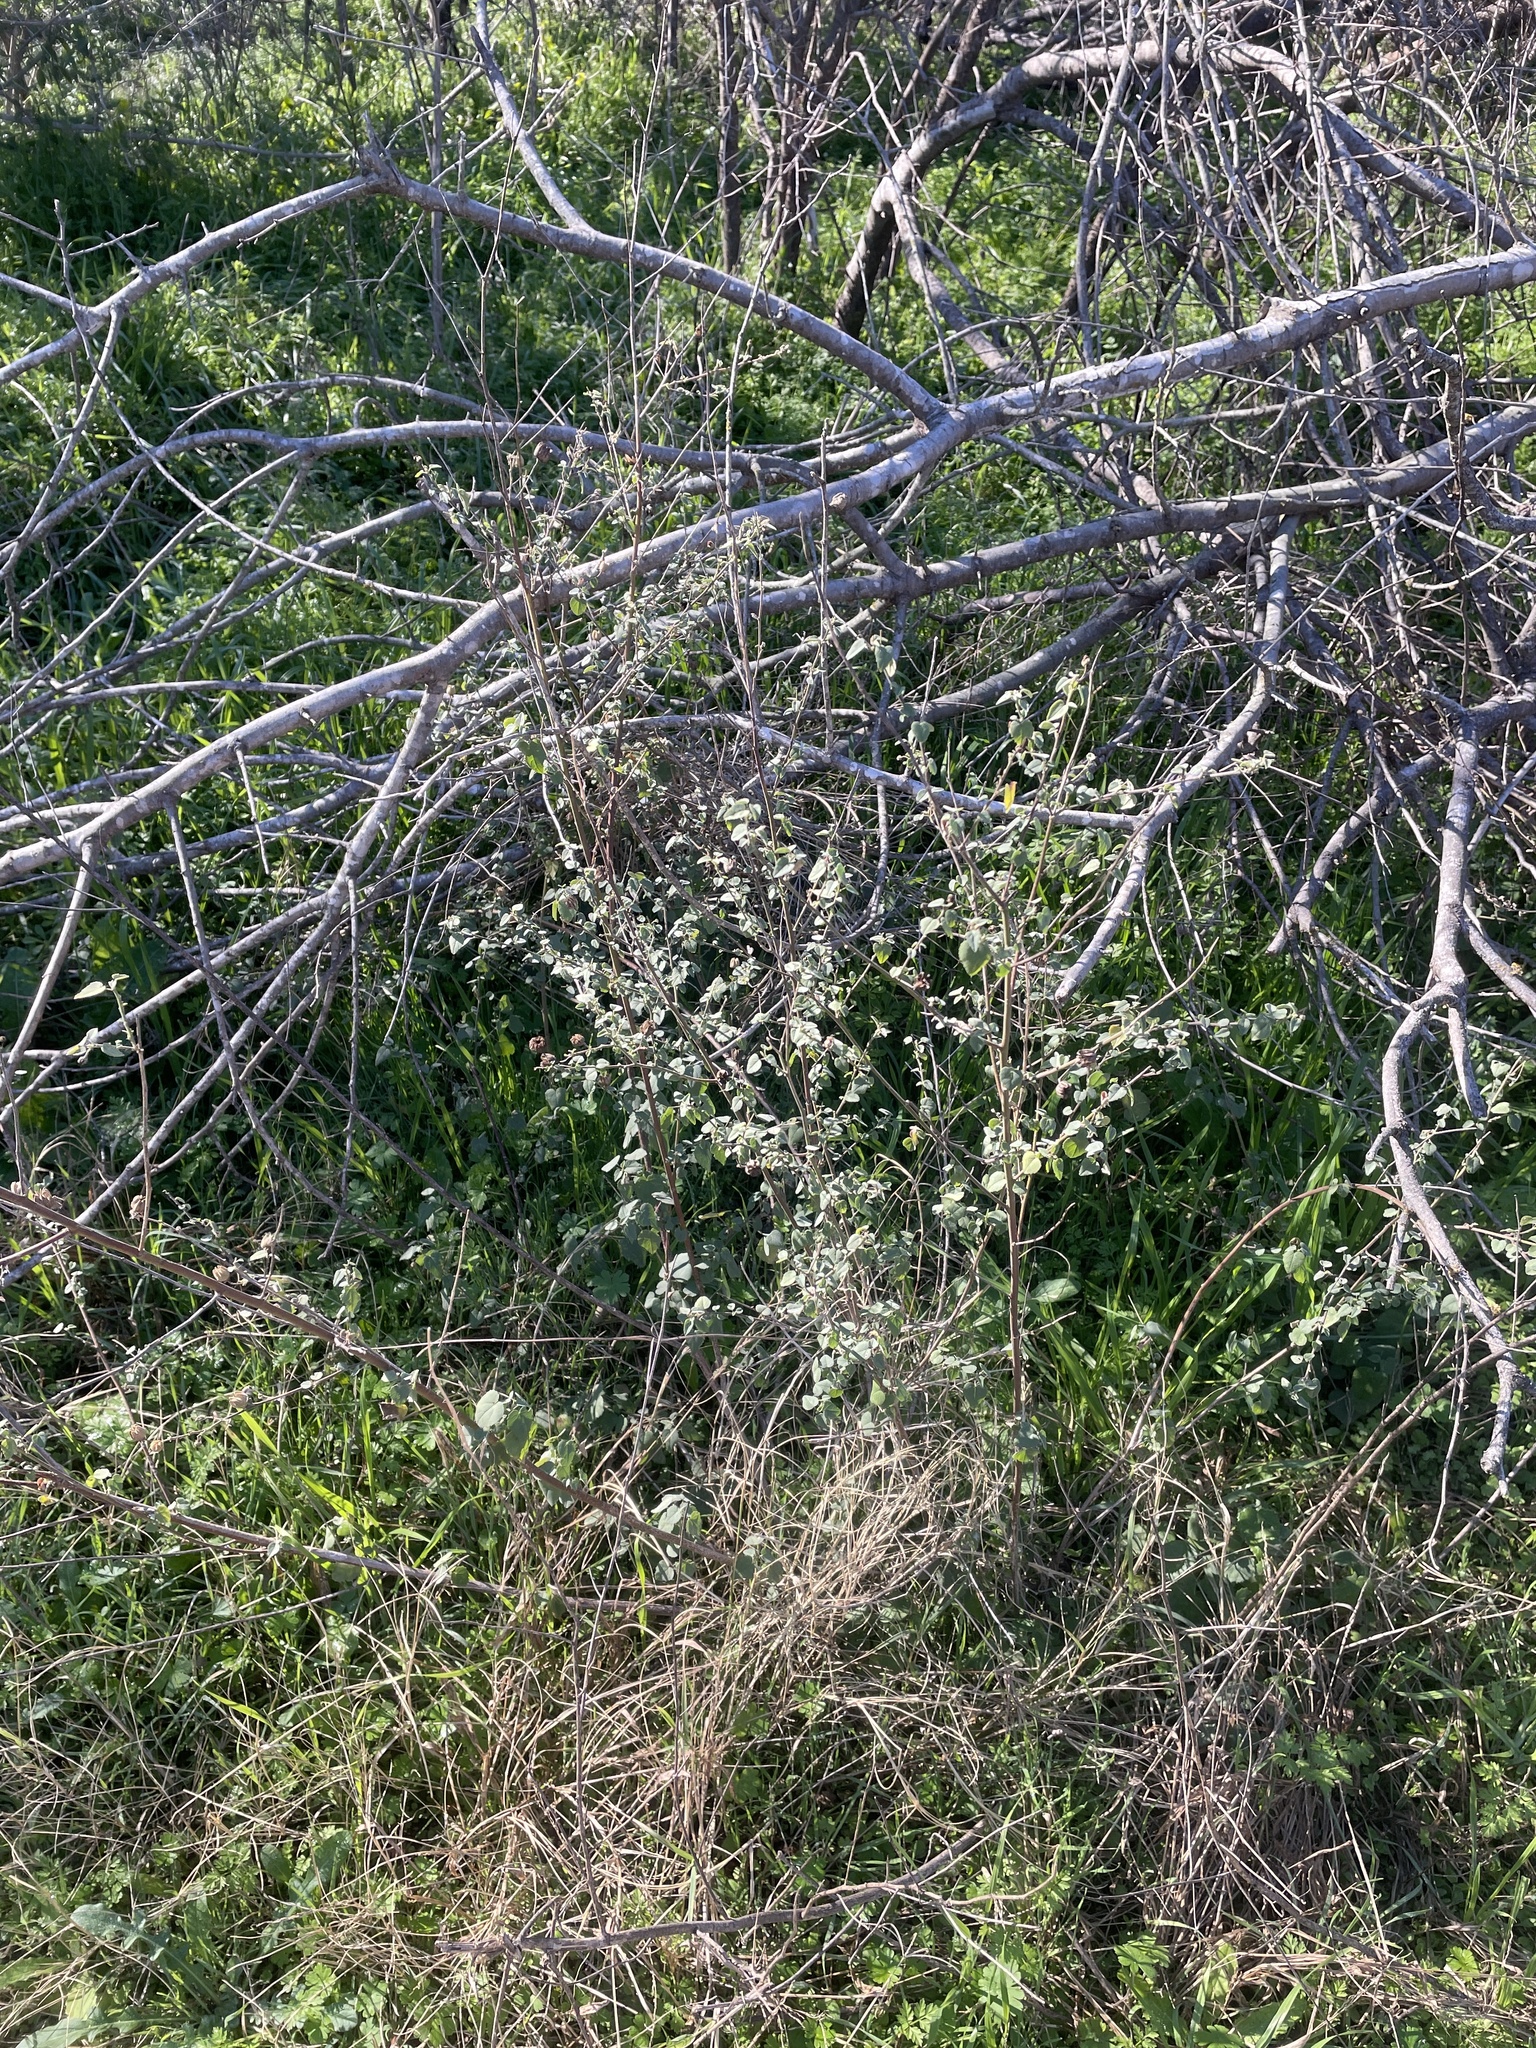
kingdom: Plantae
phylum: Tracheophyta
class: Magnoliopsida
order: Malvales
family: Malvaceae
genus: Abutilon
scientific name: Abutilon fruticosum
